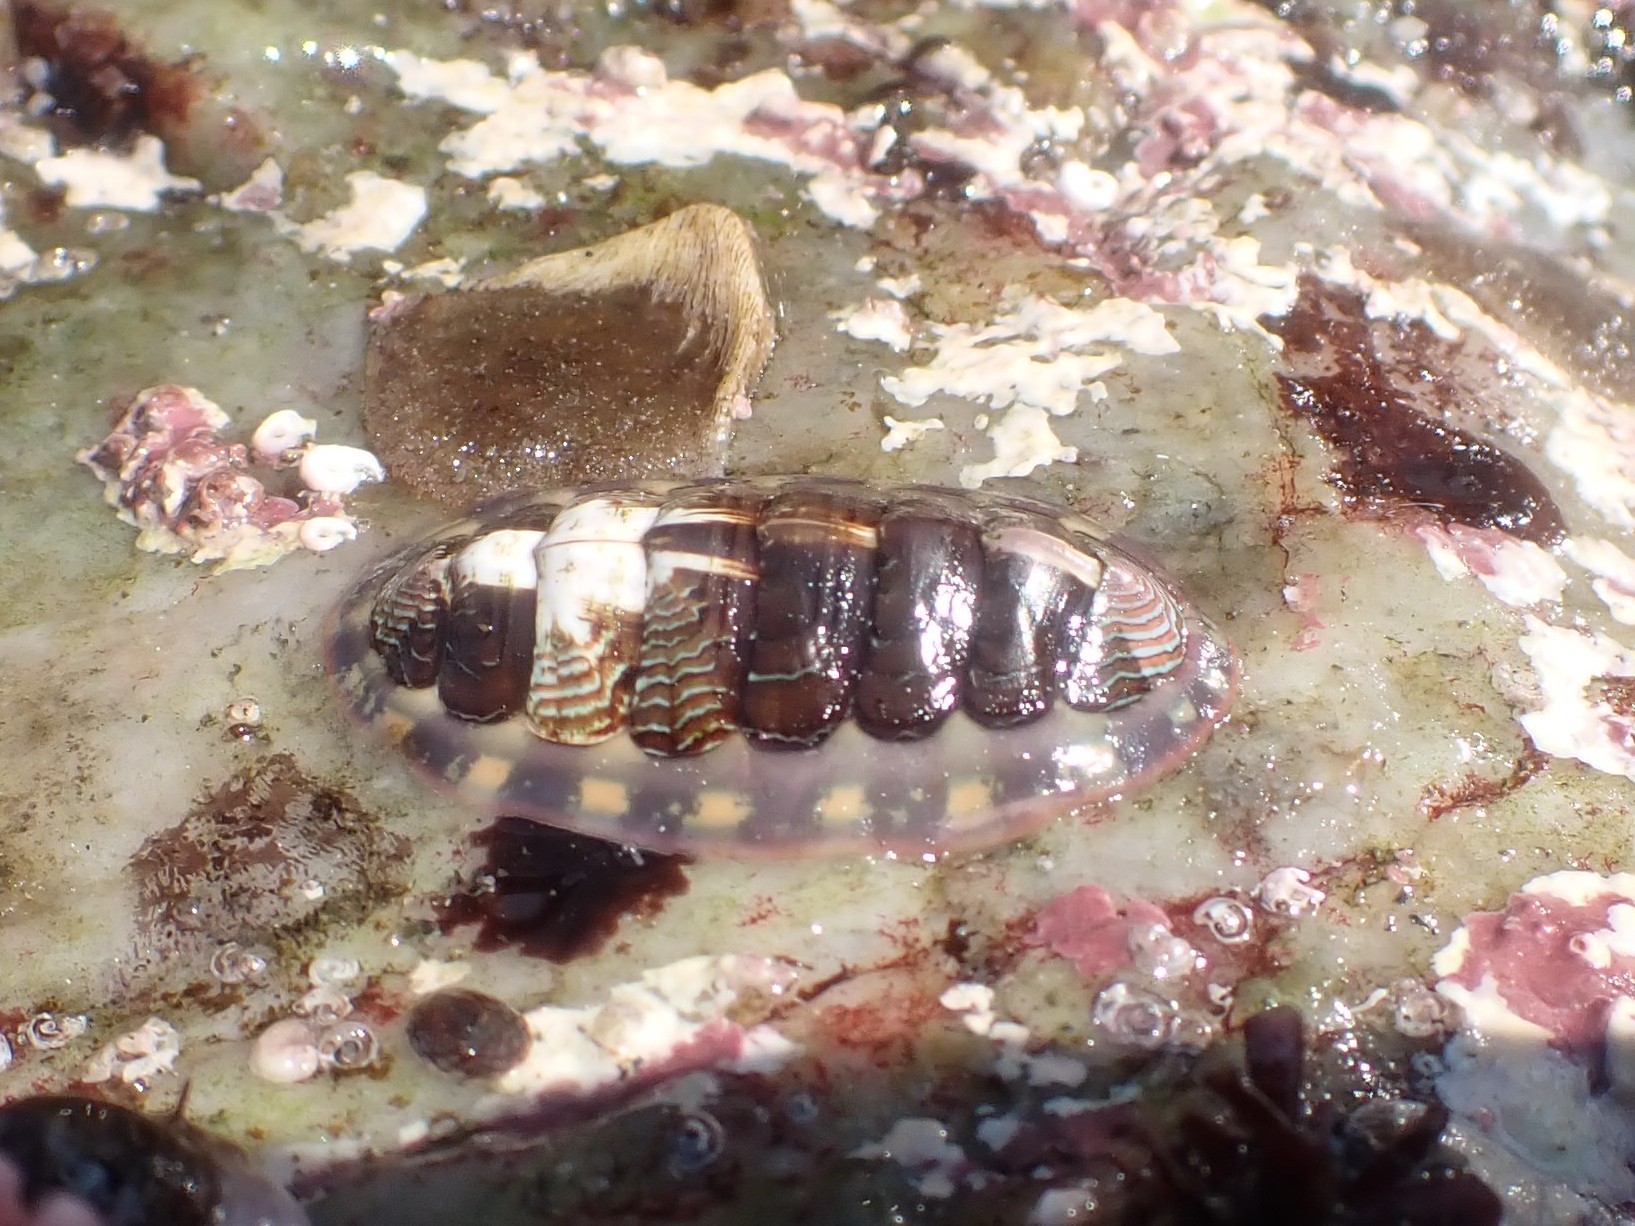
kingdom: Animalia
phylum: Mollusca
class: Polyplacophora
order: Chitonida
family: Tonicellidae
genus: Tonicella
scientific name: Tonicella lineata
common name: Lined chiton
